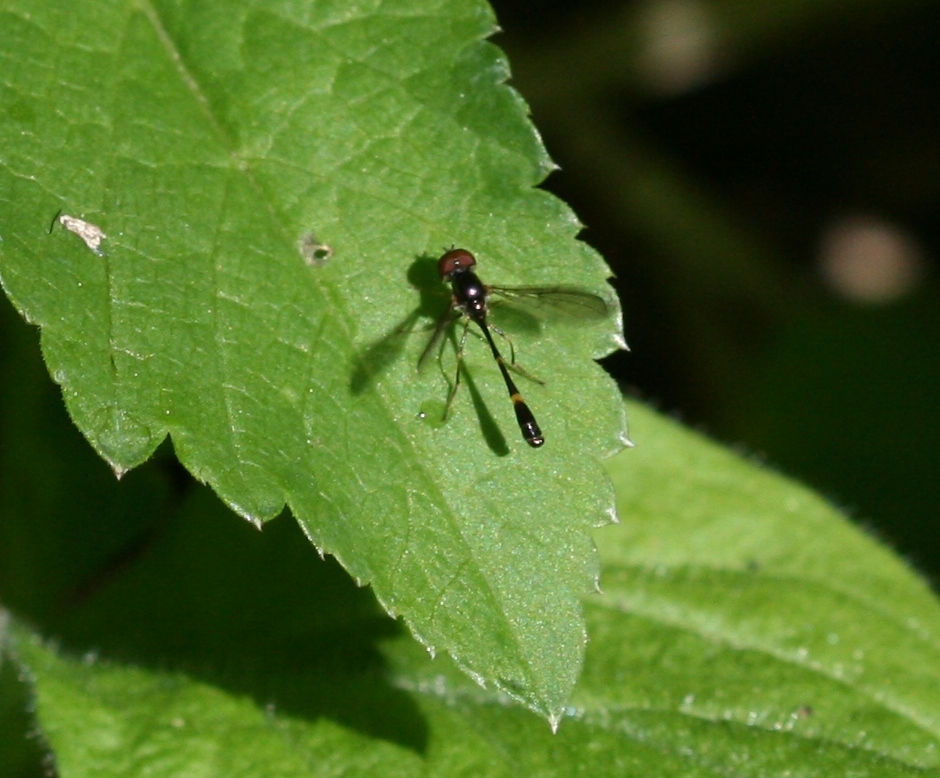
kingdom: Animalia
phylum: Arthropoda
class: Insecta
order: Diptera
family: Syrphidae
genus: Baccha
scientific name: Baccha elongata
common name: Common dainty
